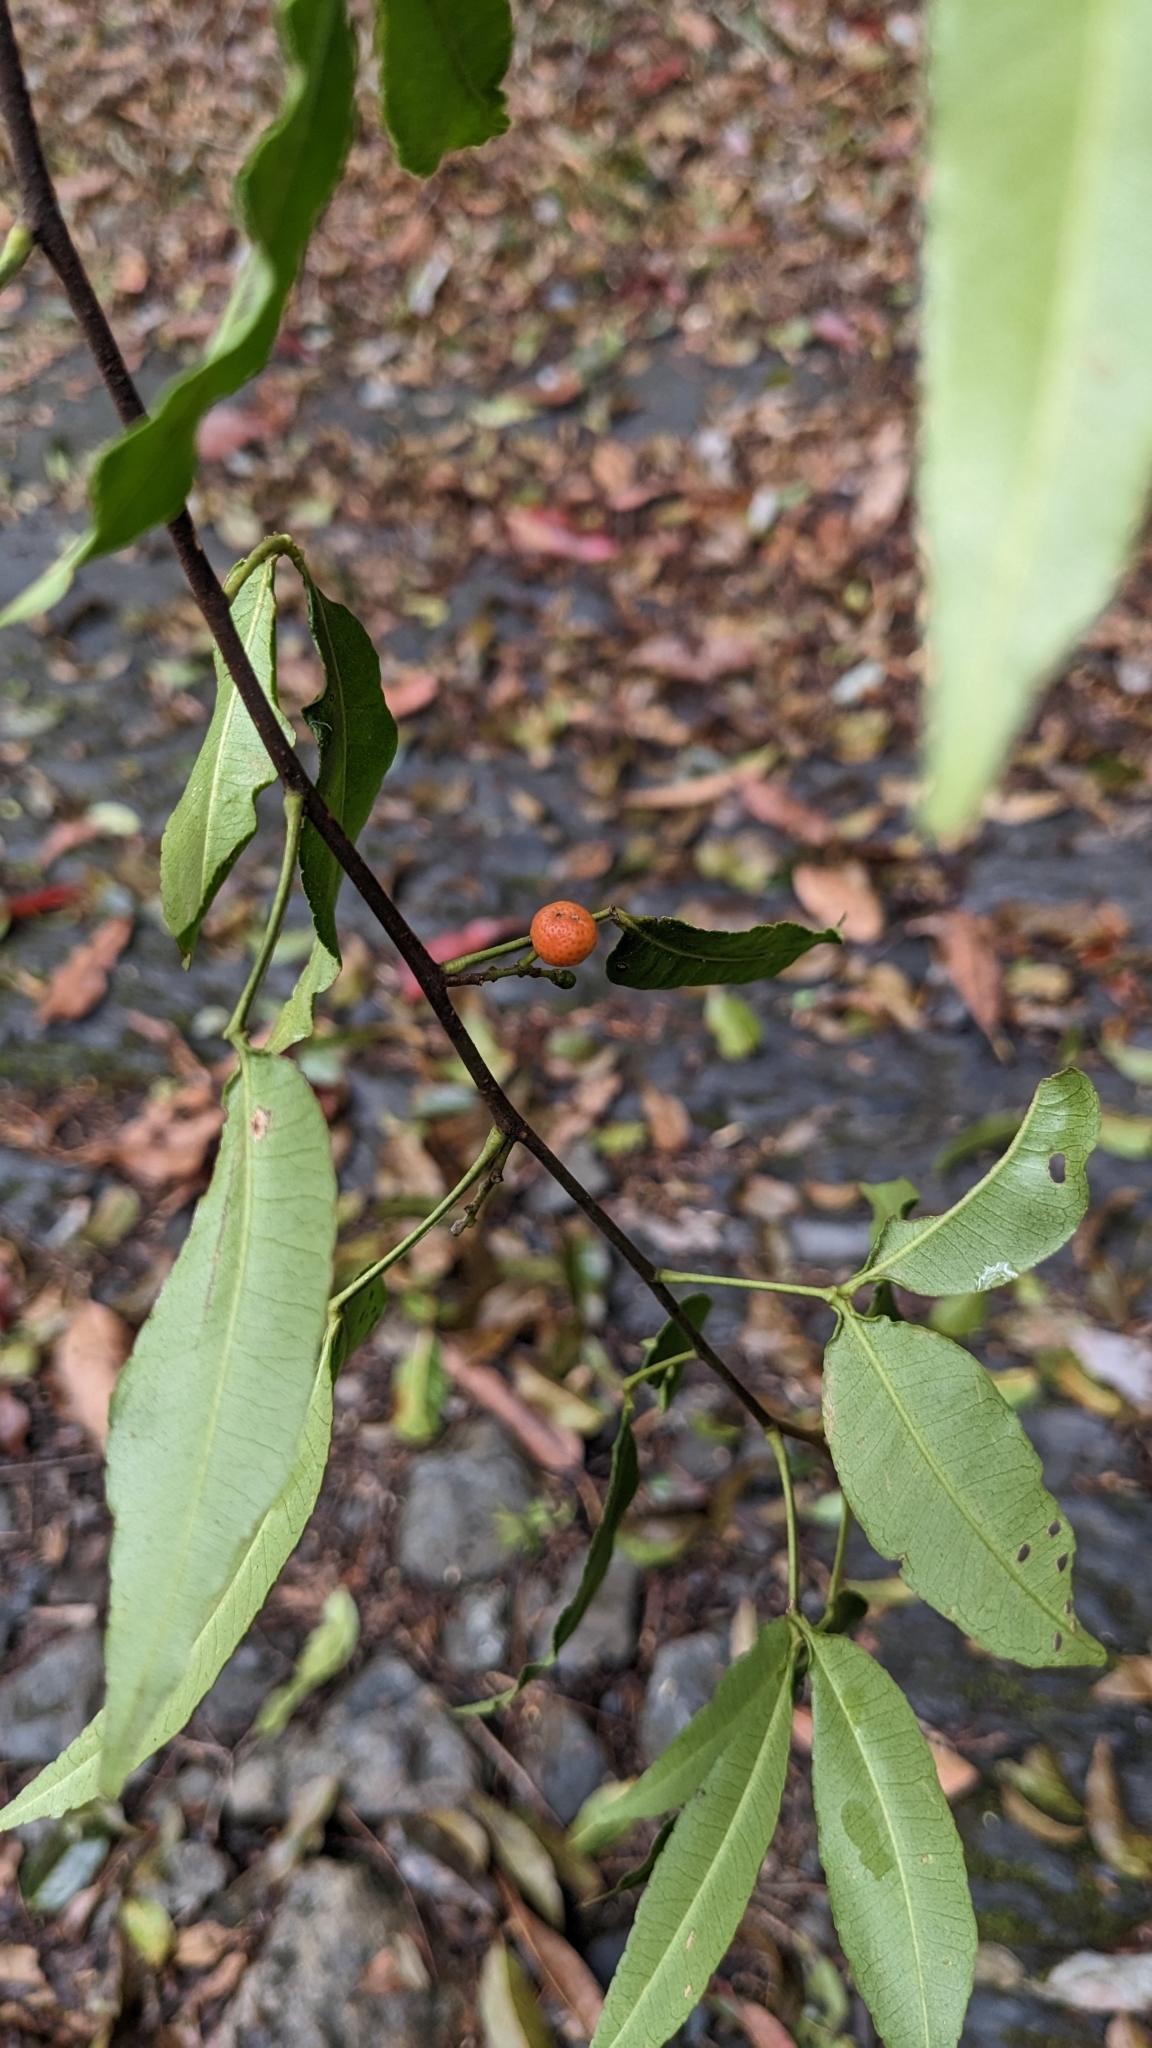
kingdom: Plantae
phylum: Tracheophyta
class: Magnoliopsida
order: Sapindales
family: Rutaceae
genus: Zanthoxylum
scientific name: Zanthoxylum asiaticum
